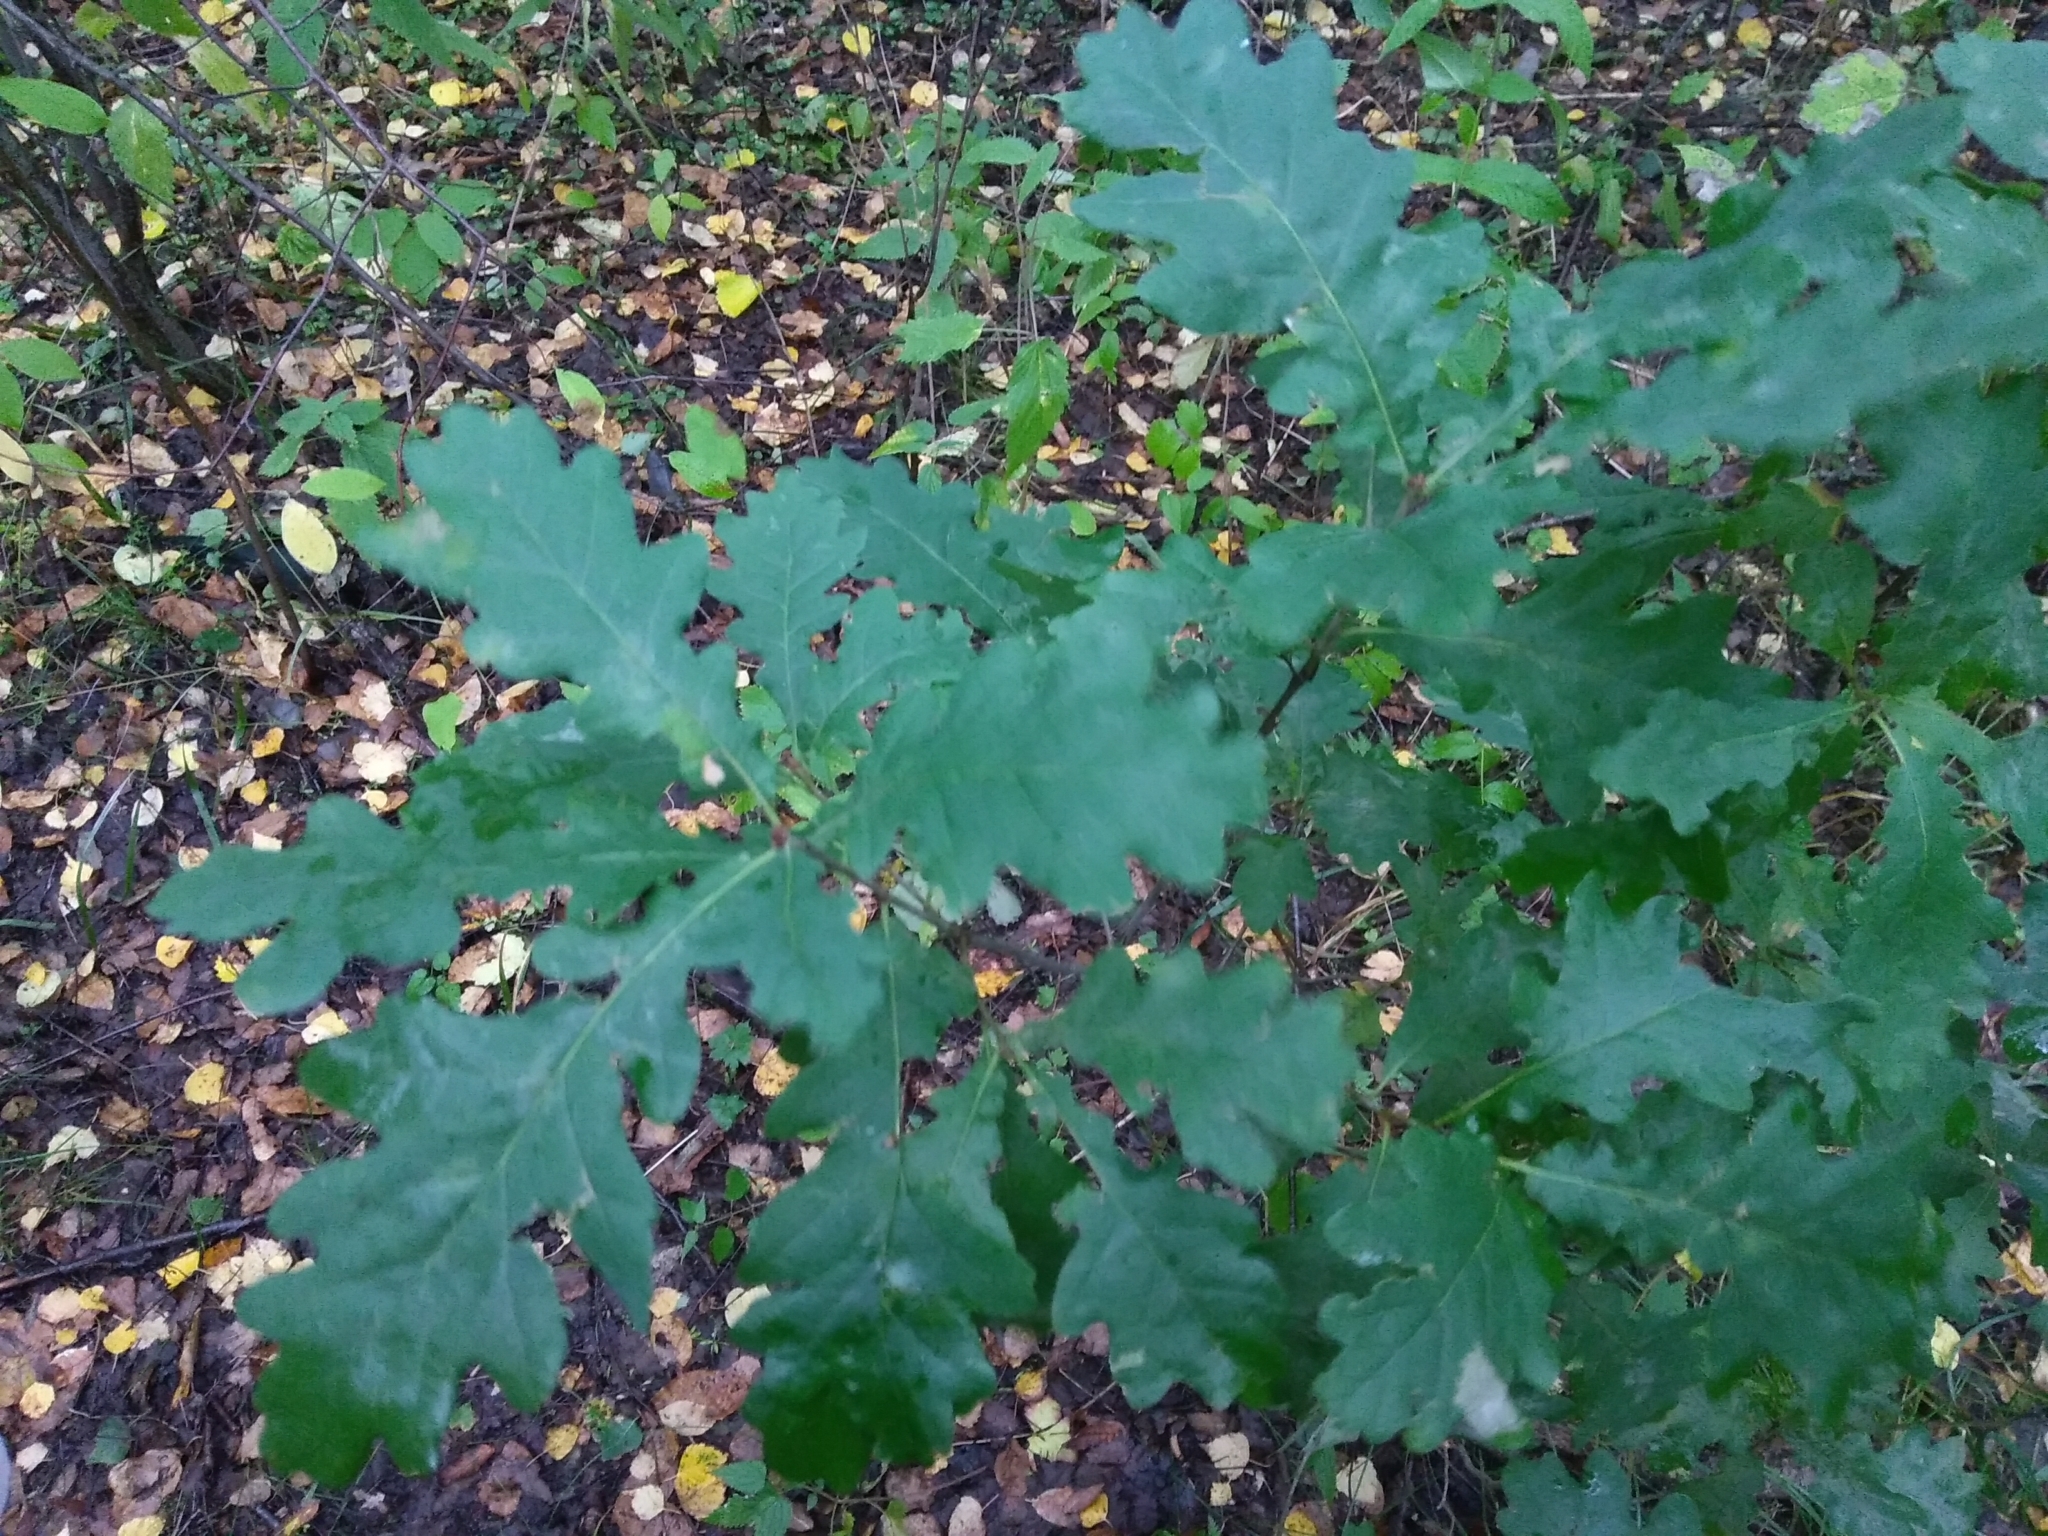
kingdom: Plantae
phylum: Tracheophyta
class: Magnoliopsida
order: Fagales
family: Fagaceae
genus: Quercus
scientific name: Quercus robur
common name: Pedunculate oak
